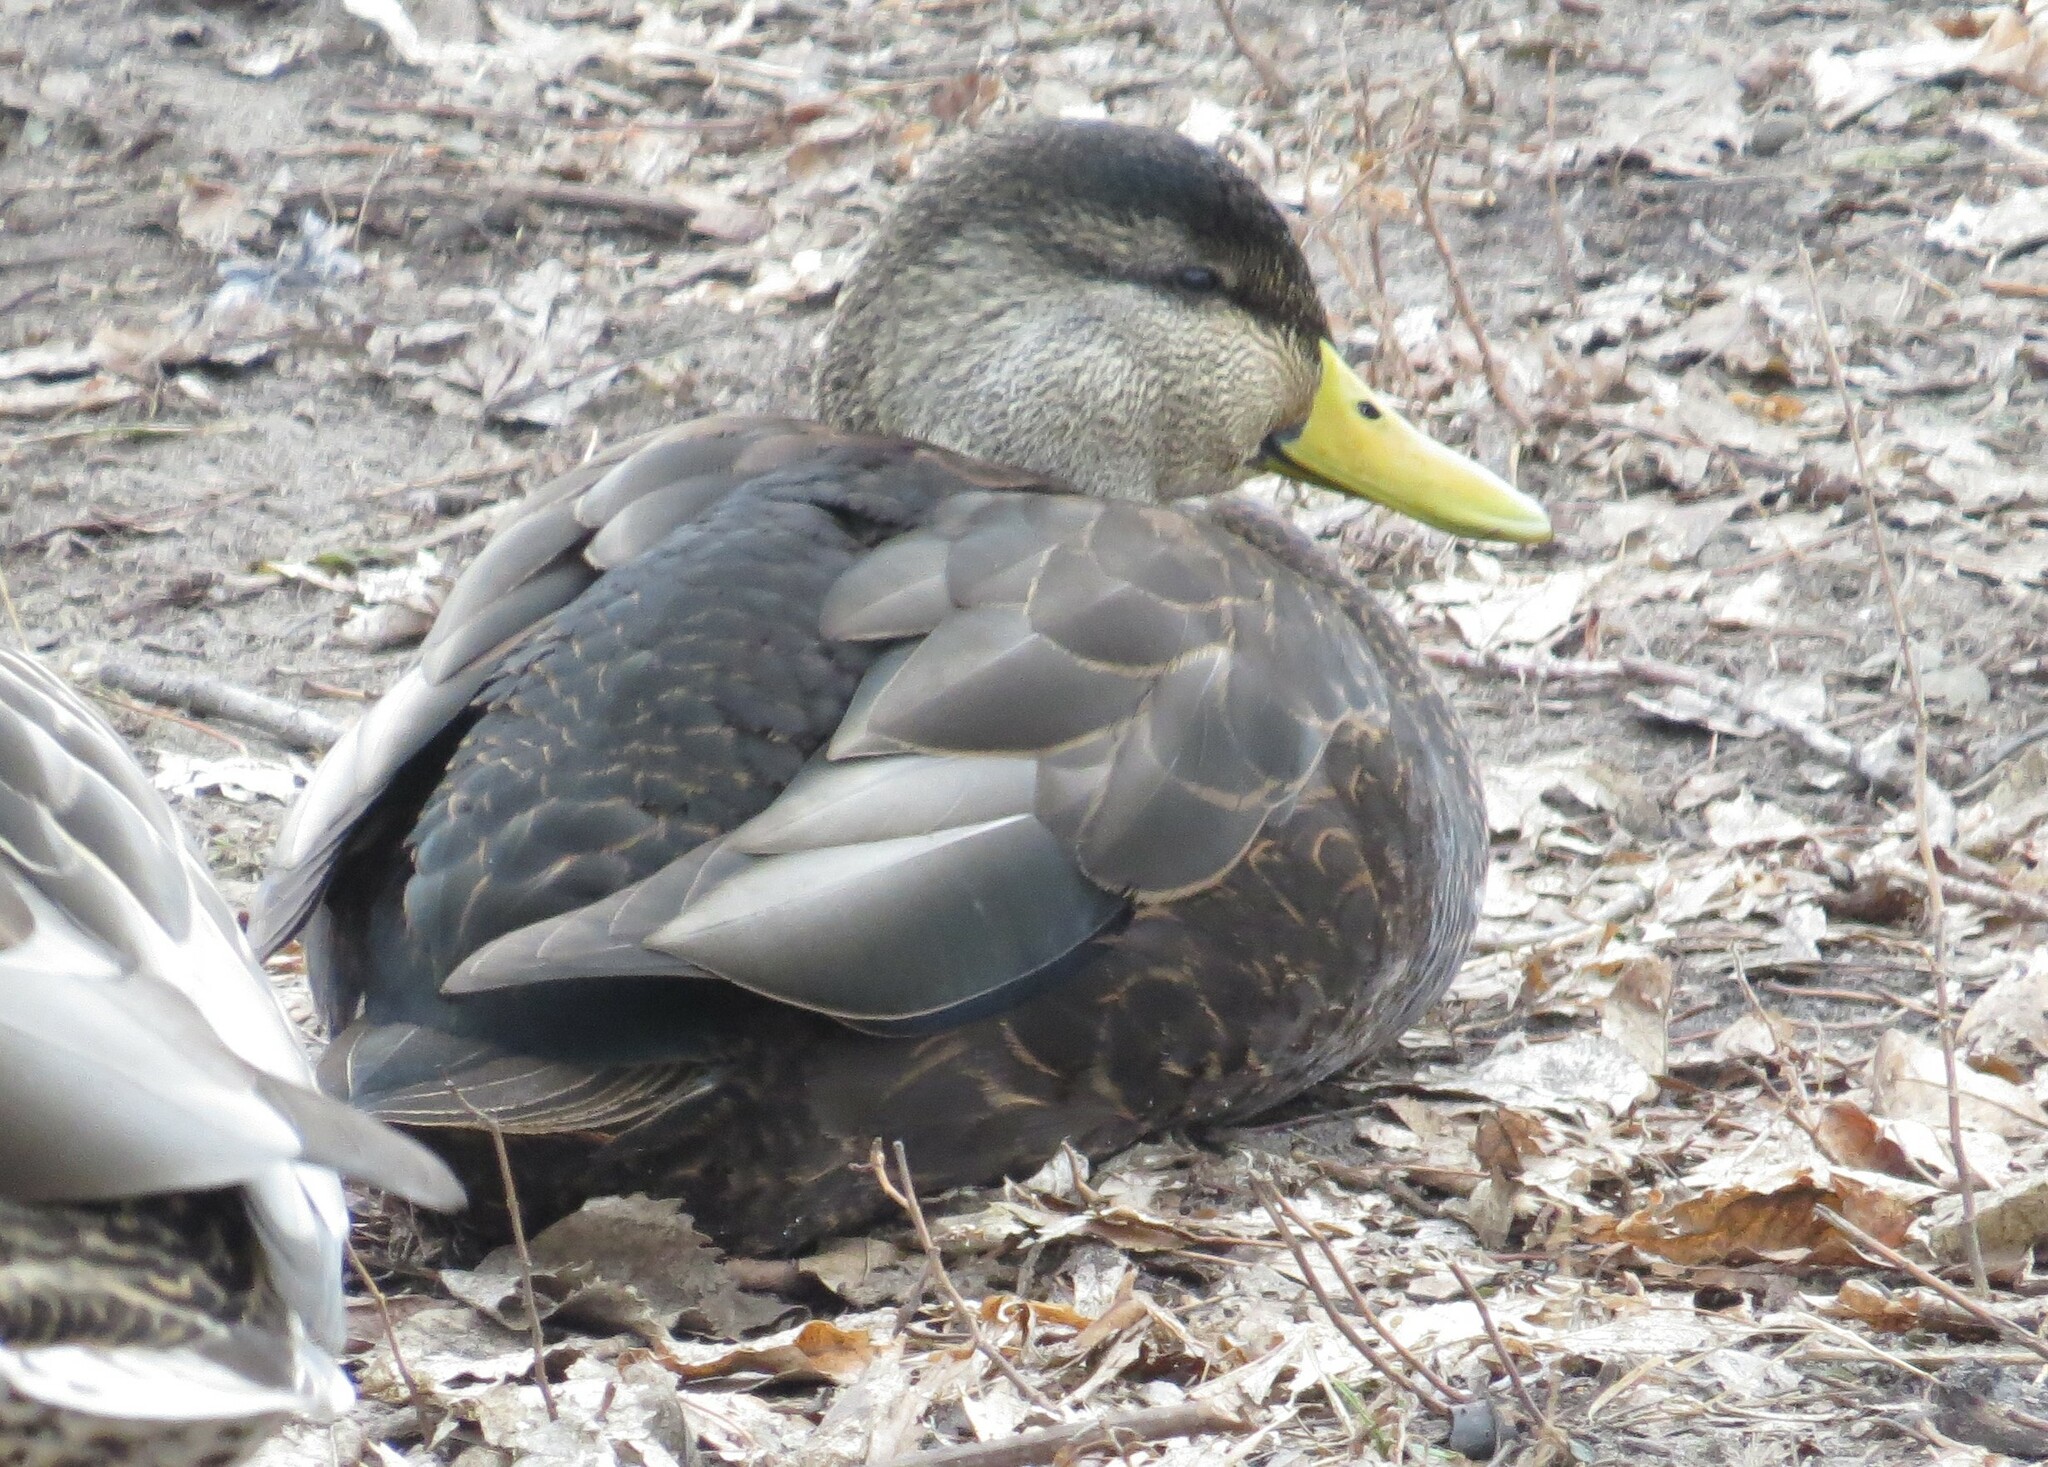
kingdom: Animalia
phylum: Chordata
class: Aves
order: Anseriformes
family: Anatidae
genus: Anas
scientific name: Anas rubripes
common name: American black duck
